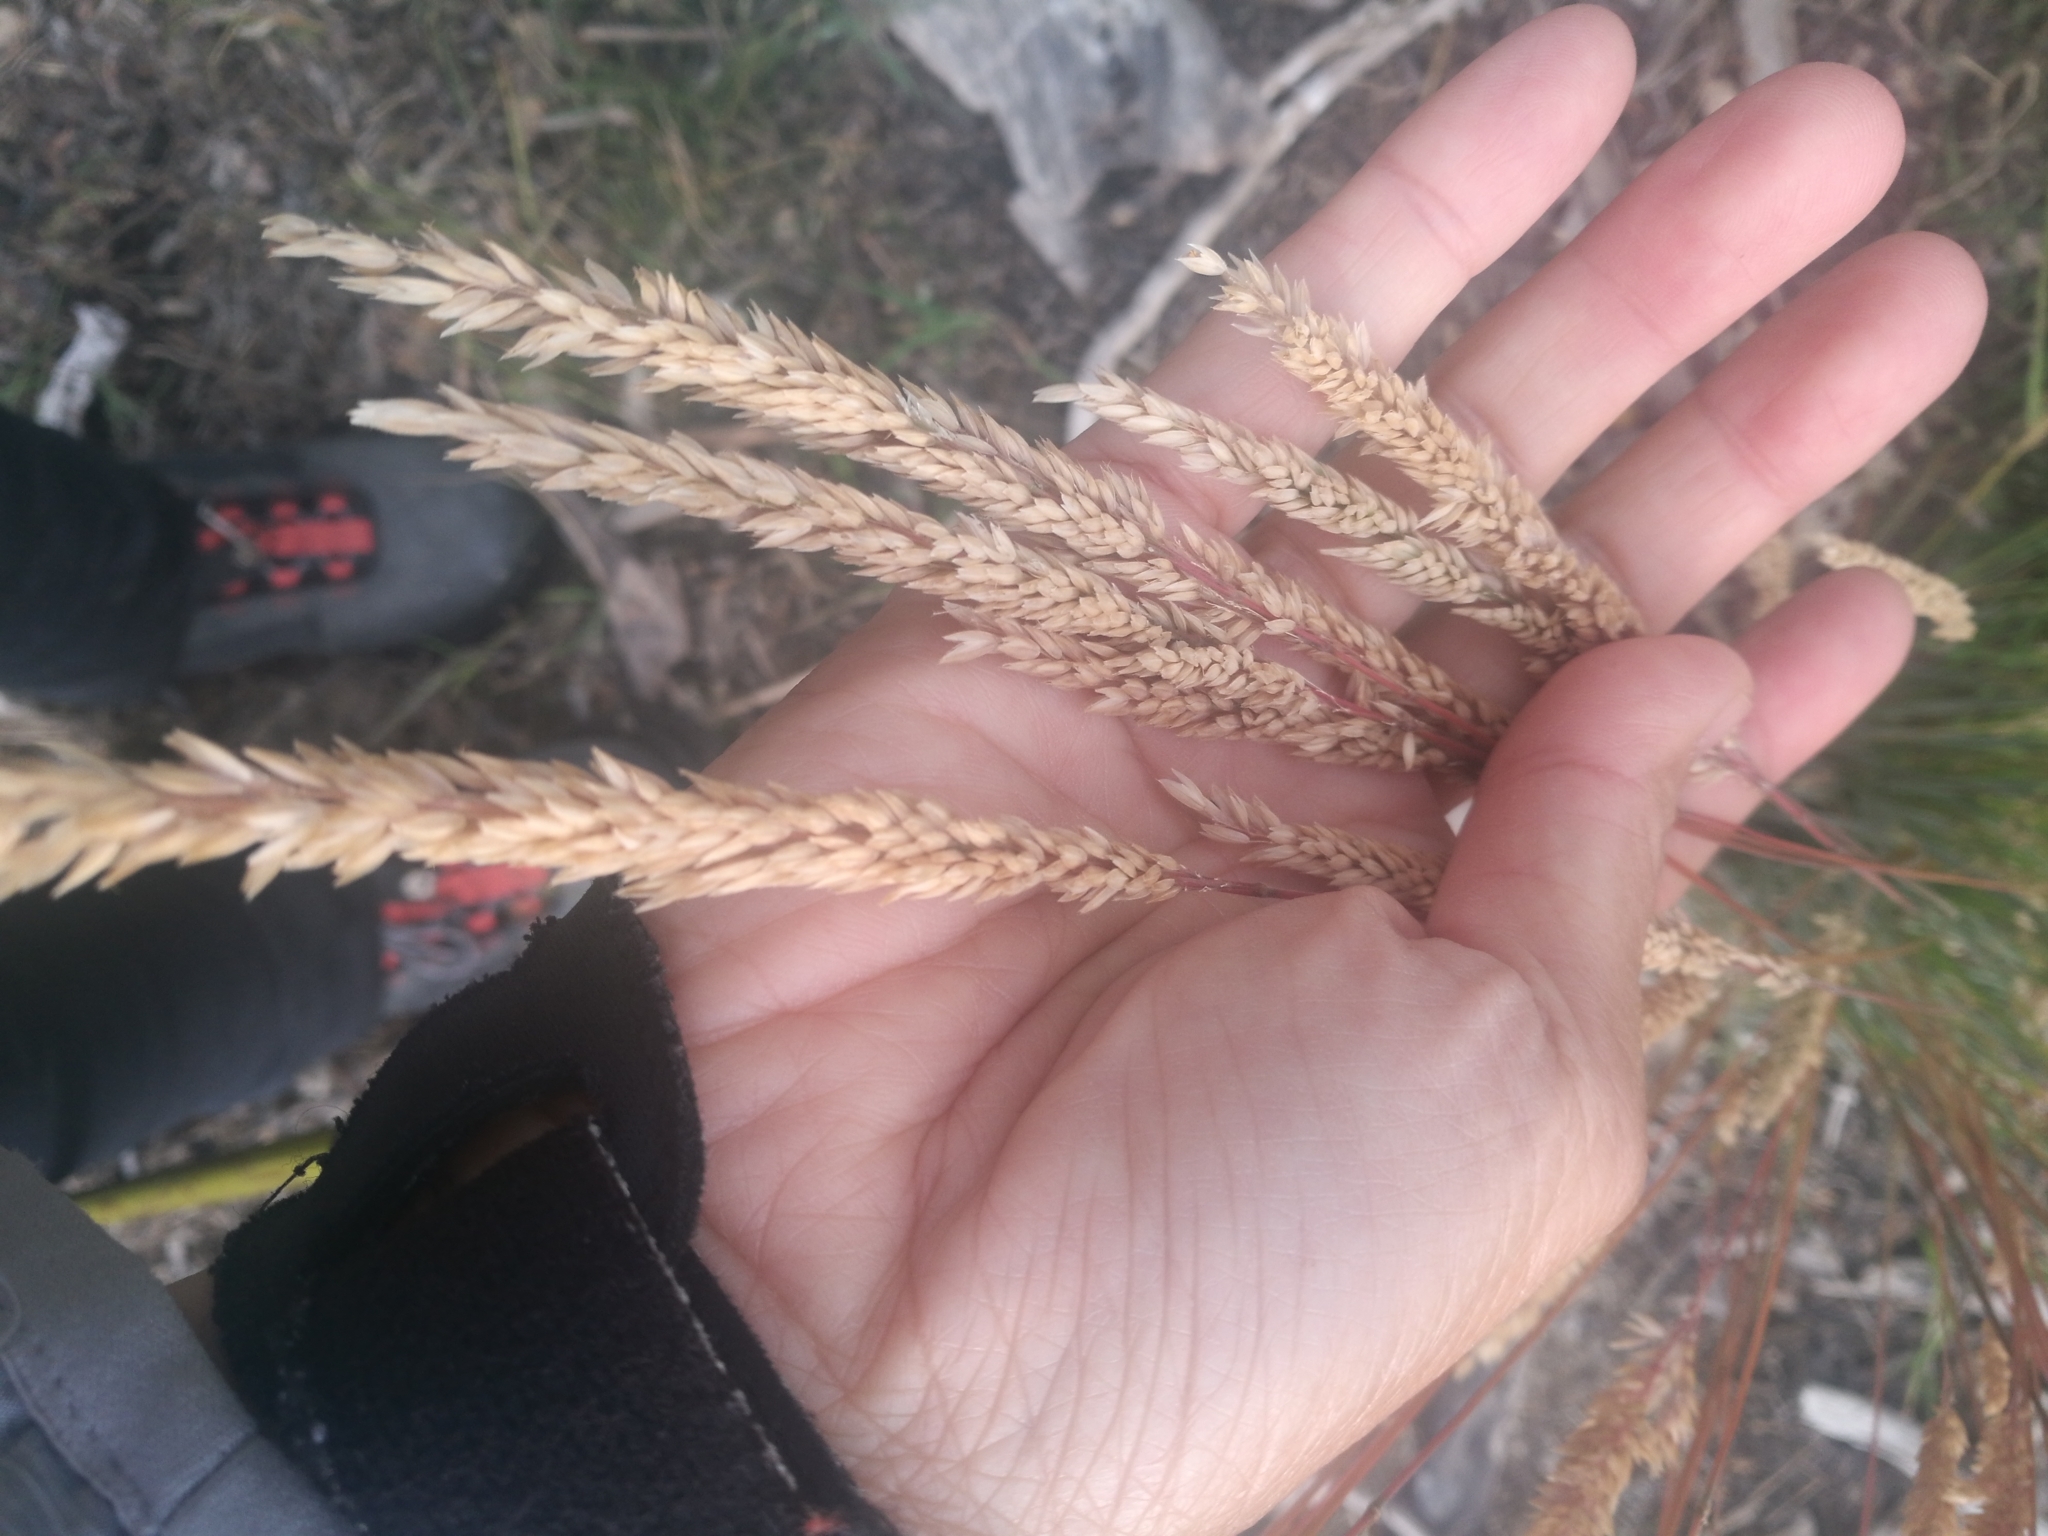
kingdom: Plantae
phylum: Tracheophyta
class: Liliopsida
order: Poales
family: Poaceae
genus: Holcus
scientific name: Holcus lanatus
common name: Yorkshire-fog
